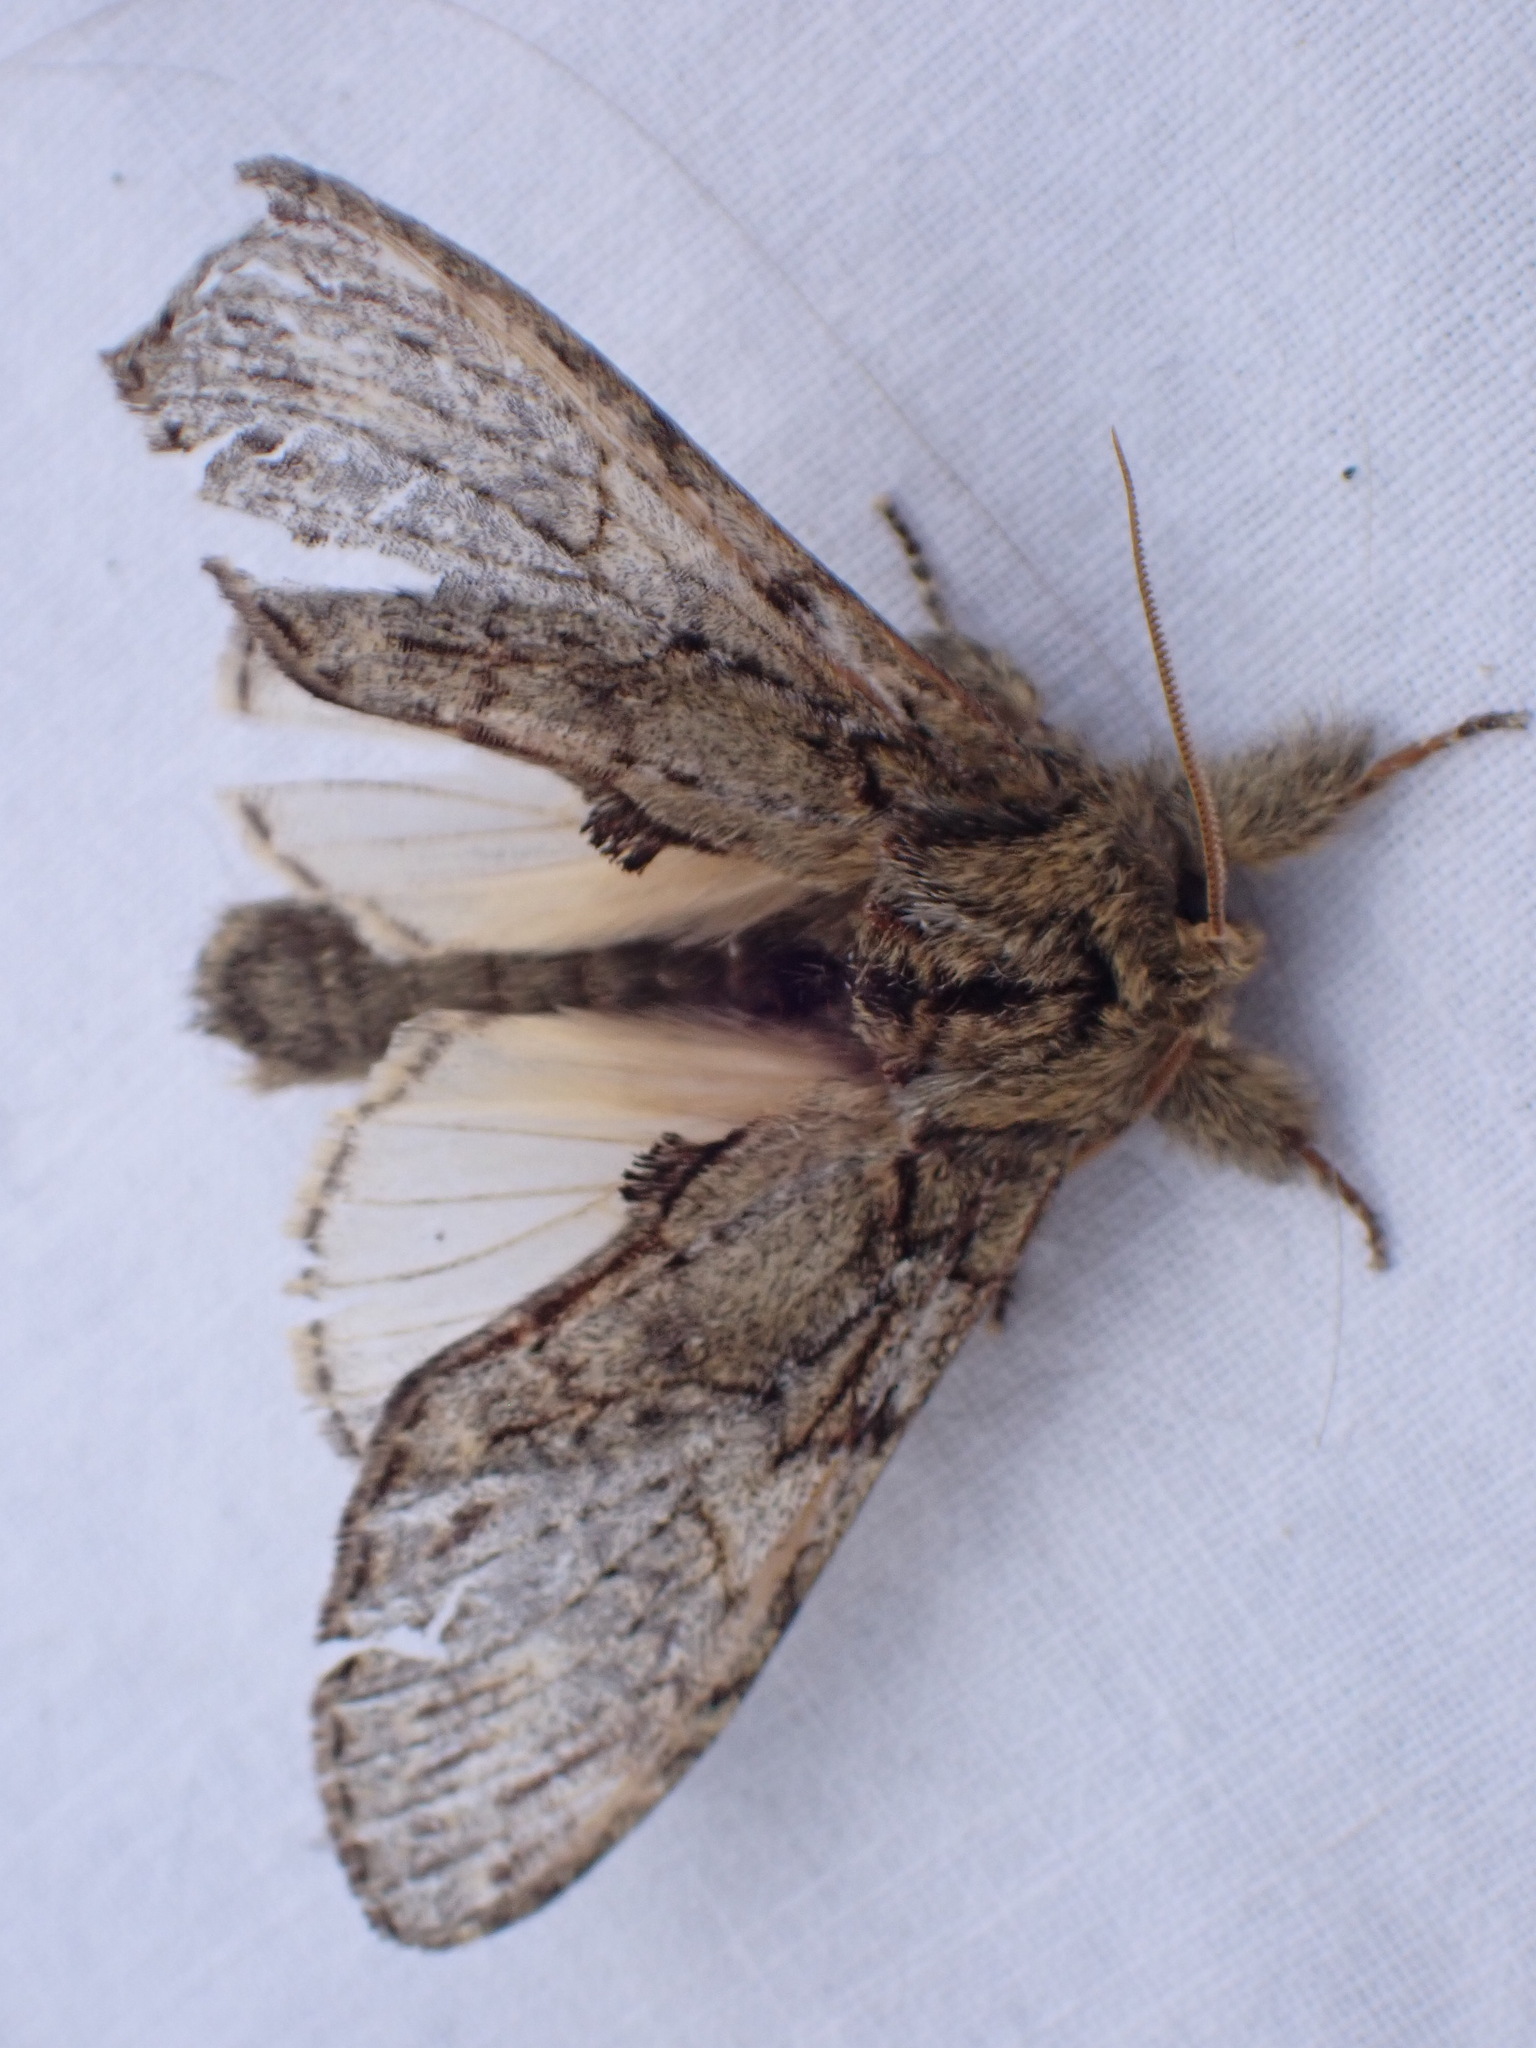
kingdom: Animalia
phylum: Arthropoda
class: Insecta
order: Lepidoptera
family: Notodontidae
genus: Peridea
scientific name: Peridea anceps
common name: Great prominent
